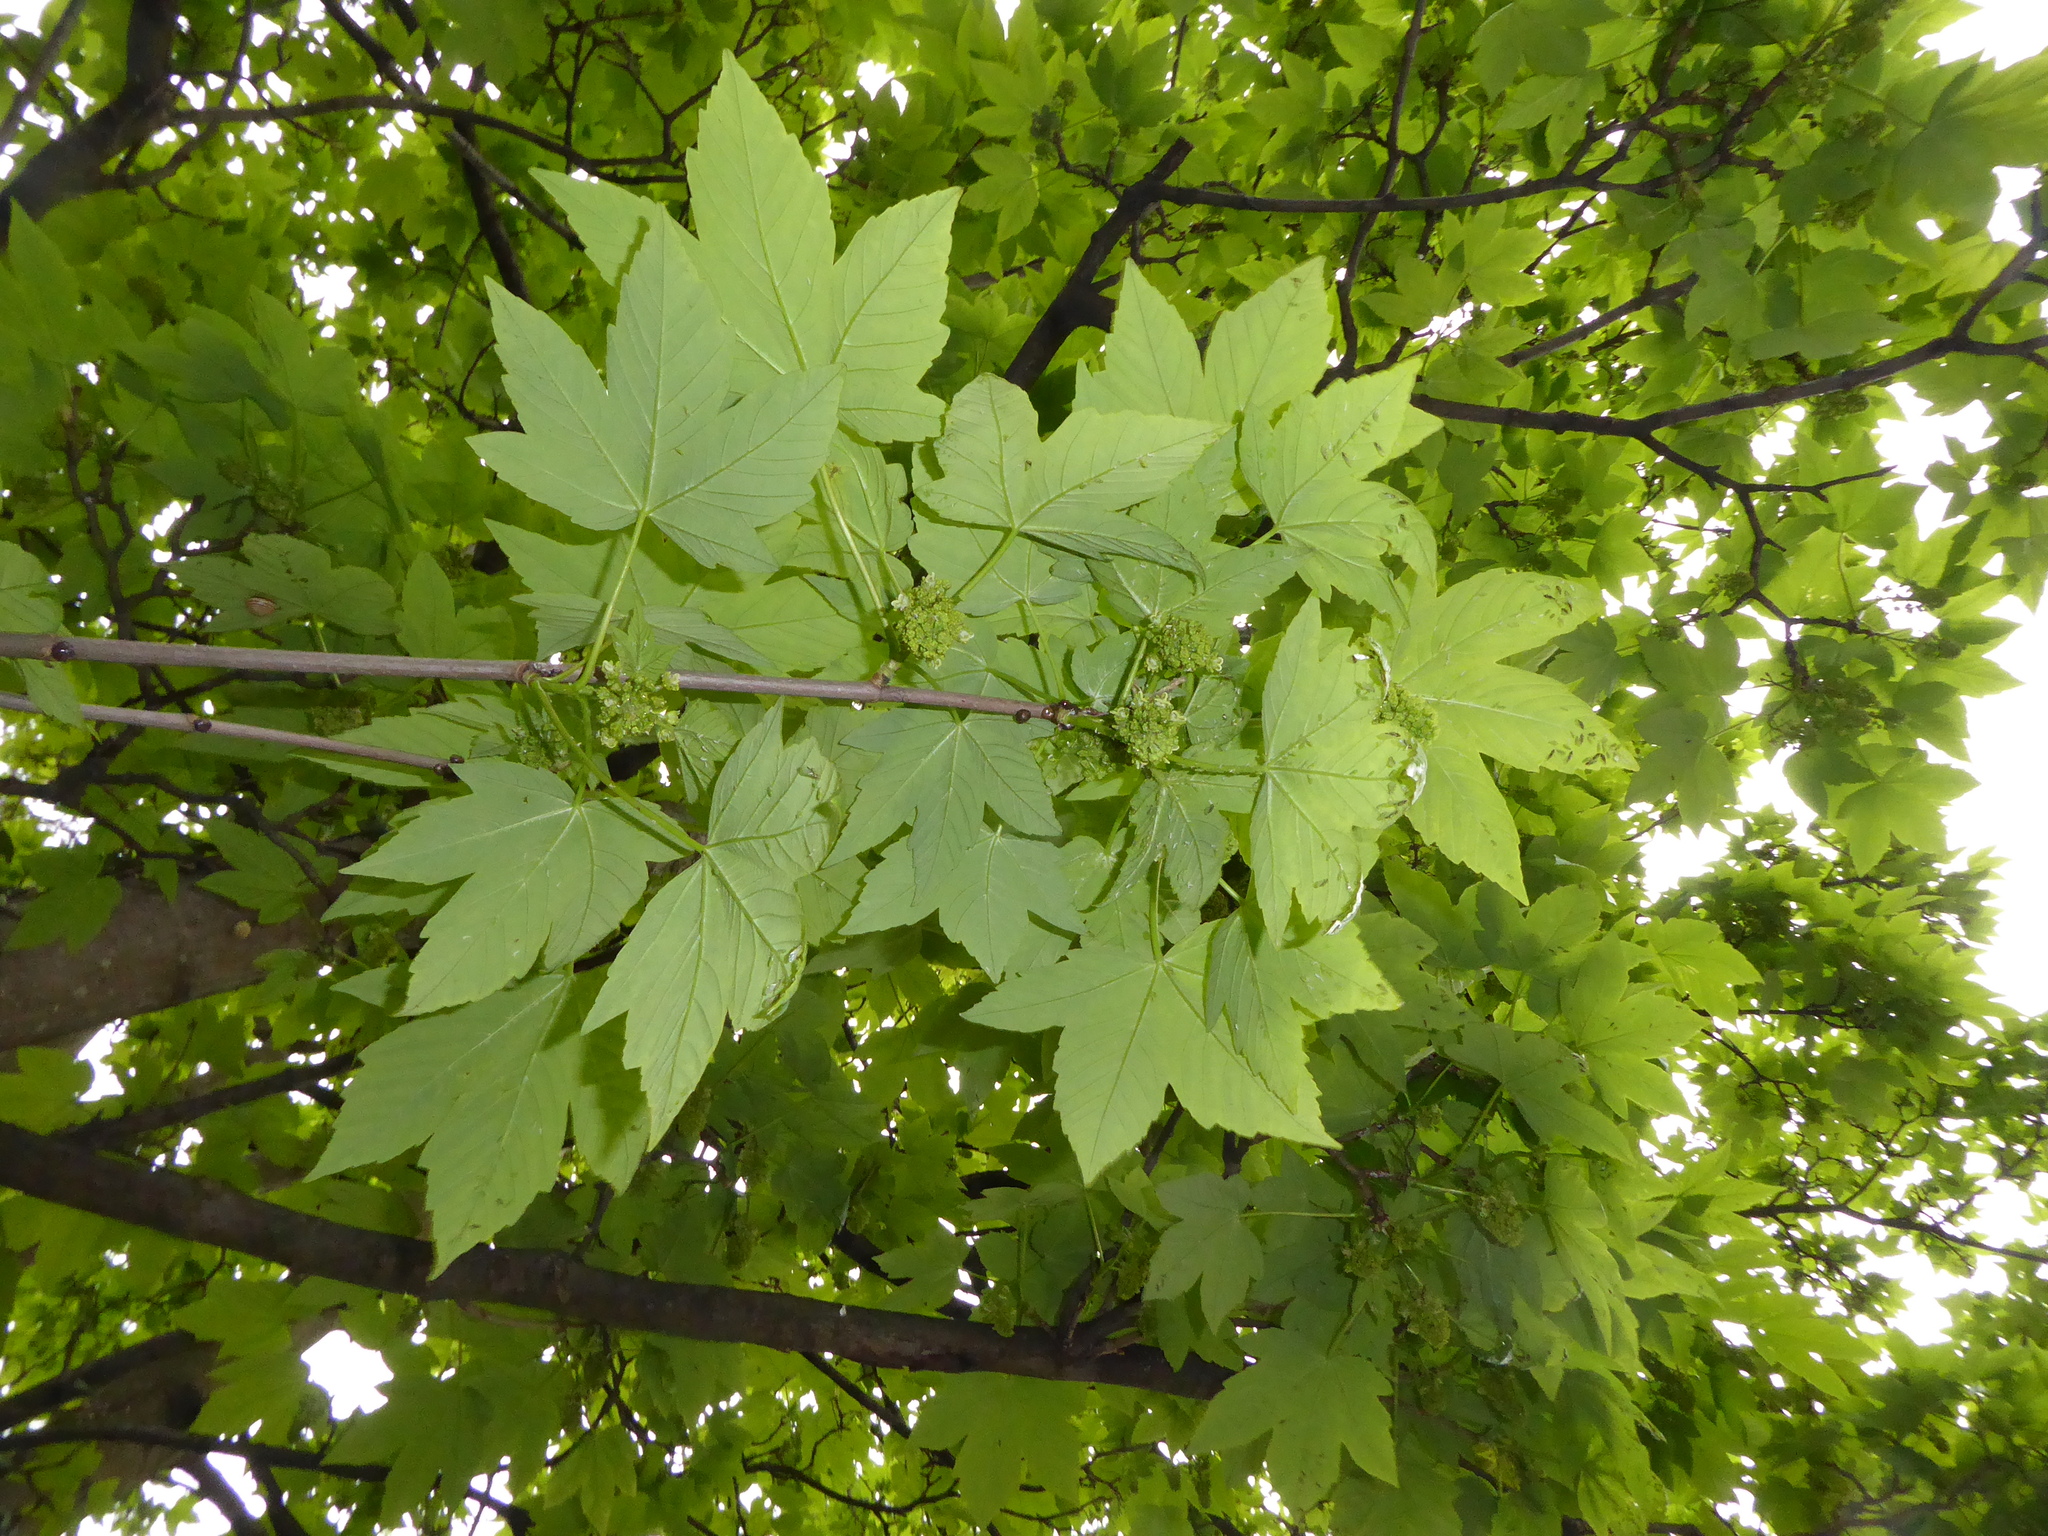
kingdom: Plantae
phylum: Tracheophyta
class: Magnoliopsida
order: Sapindales
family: Sapindaceae
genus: Acer
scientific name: Acer pseudoplatanus
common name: Sycamore
